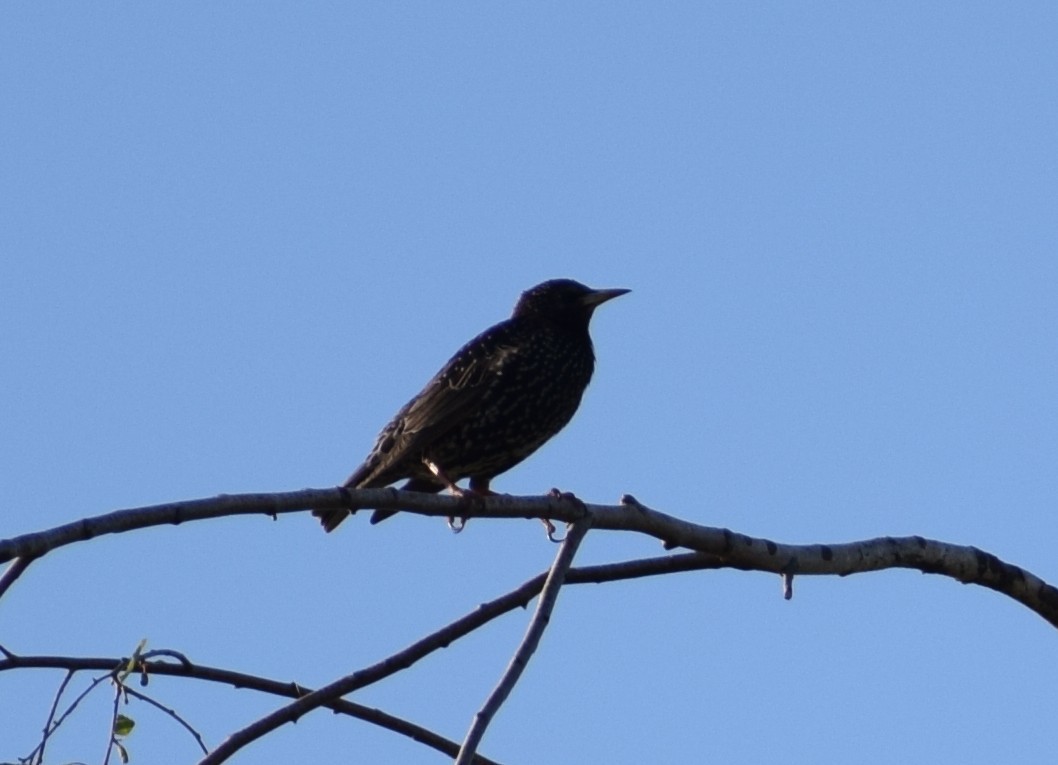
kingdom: Animalia
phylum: Chordata
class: Aves
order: Passeriformes
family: Sturnidae
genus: Sturnus
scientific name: Sturnus vulgaris
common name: Common starling
